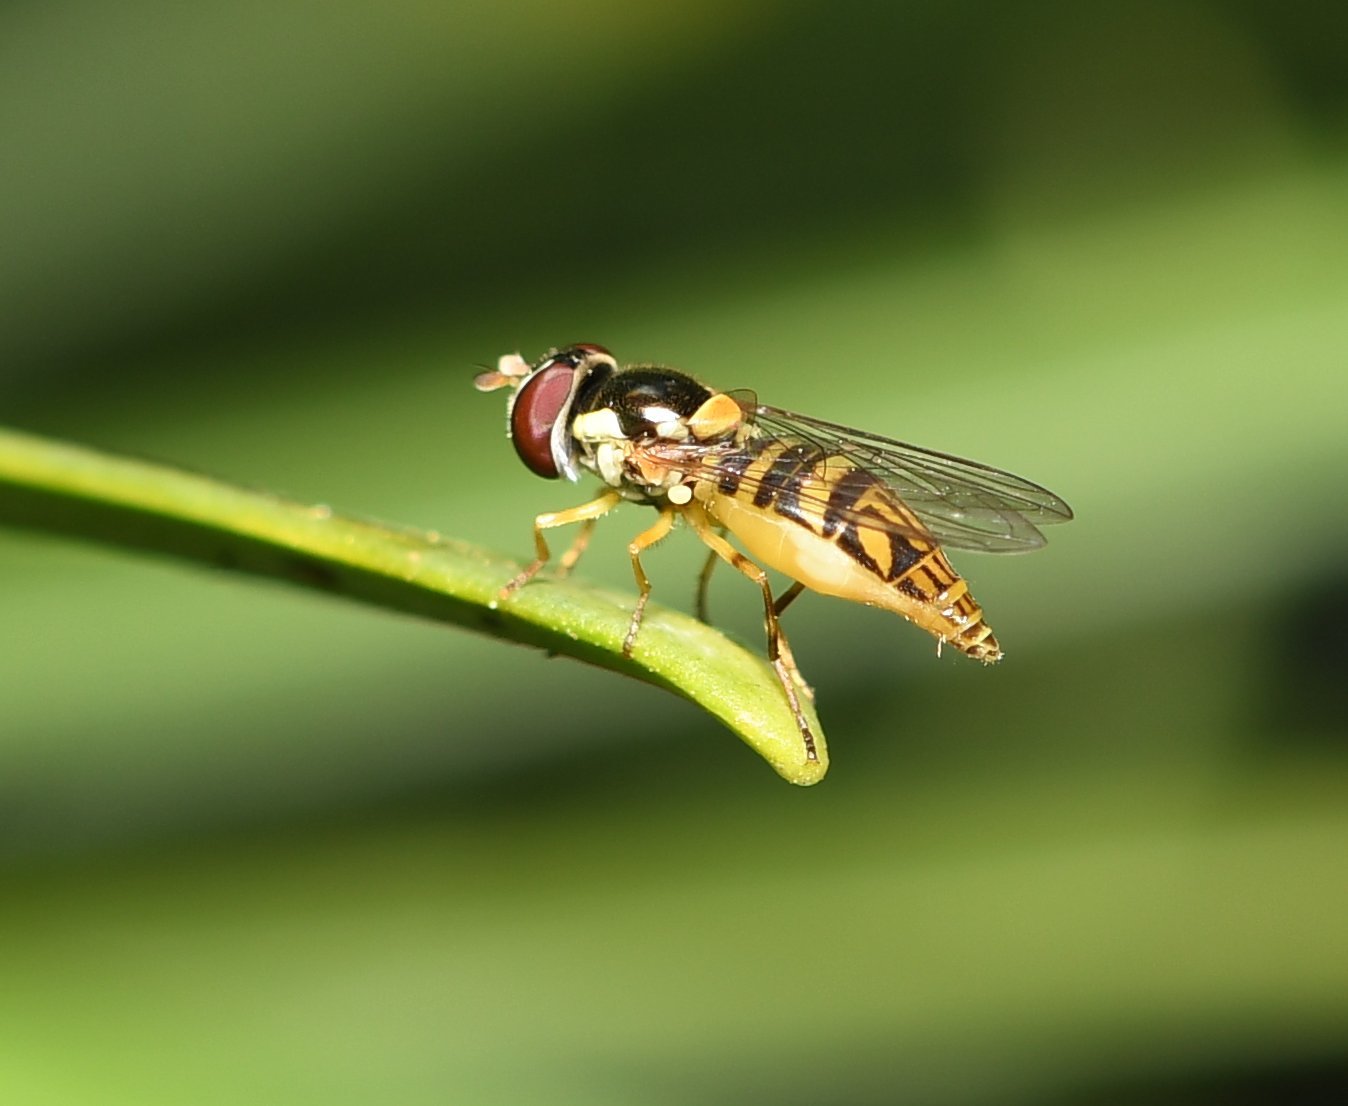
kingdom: Animalia
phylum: Arthropoda
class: Insecta
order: Diptera
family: Syrphidae
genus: Allograpta
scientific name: Allograpta obliqua
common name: Common oblique syrphid
